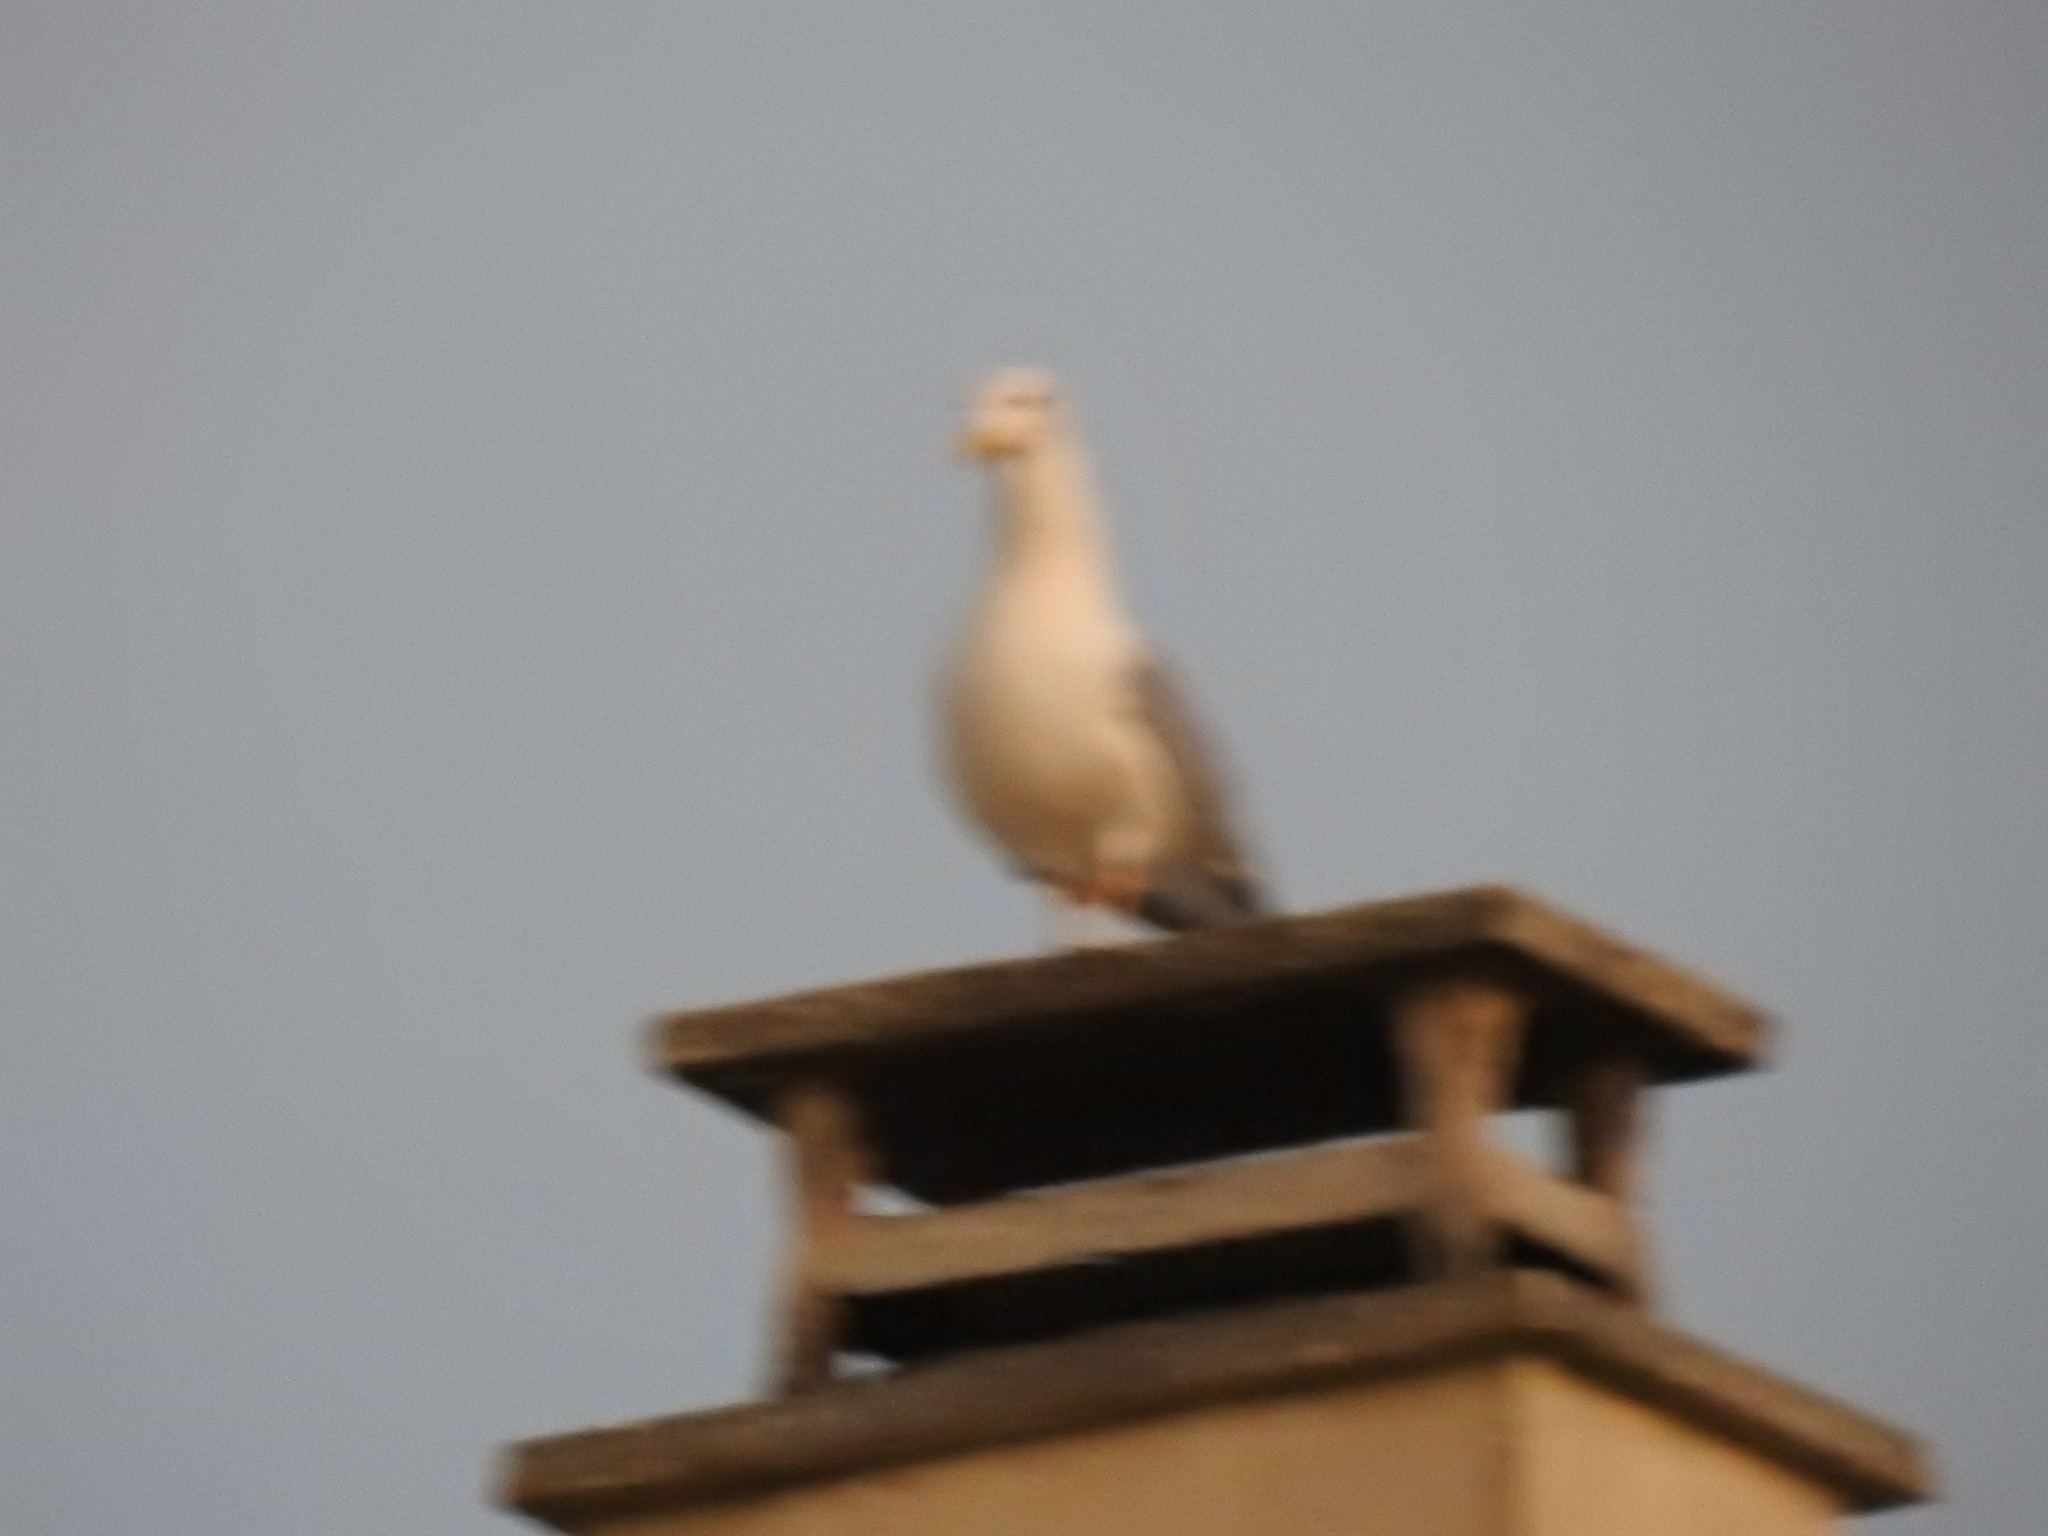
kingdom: Animalia
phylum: Chordata
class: Aves
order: Charadriiformes
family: Laridae
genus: Larus
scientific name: Larus michahellis
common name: Yellow-legged gull
